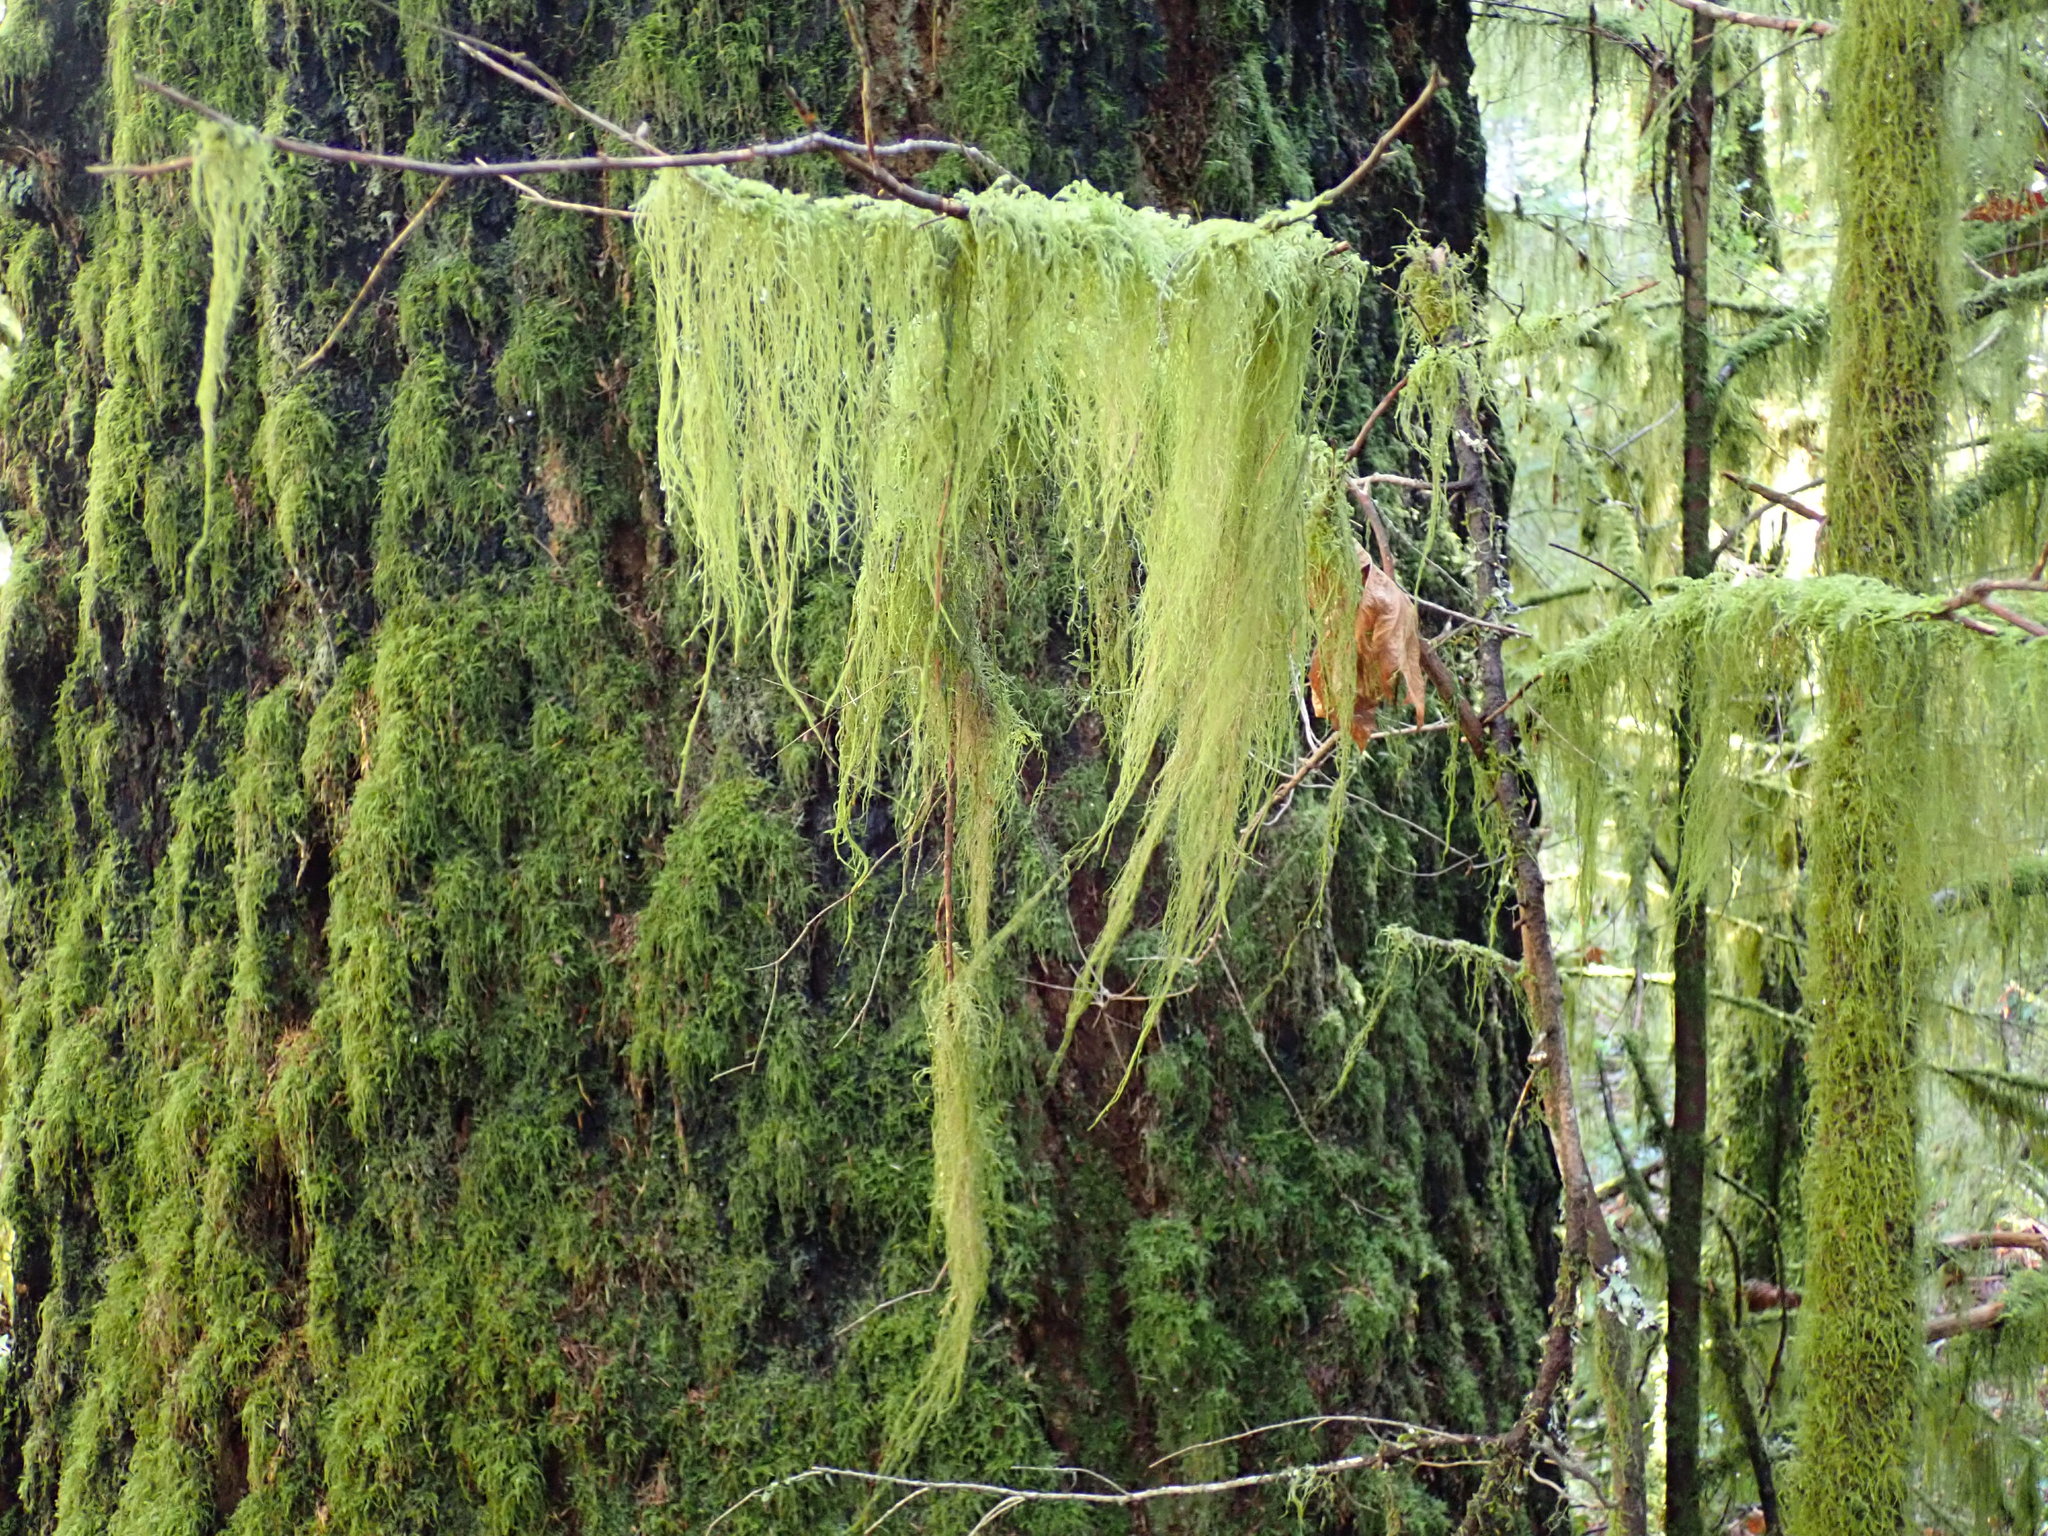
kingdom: Plantae
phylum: Bryophyta
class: Bryopsida
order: Hypnales
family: Lembophyllaceae
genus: Pseudisothecium
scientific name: Pseudisothecium stoloniferum
